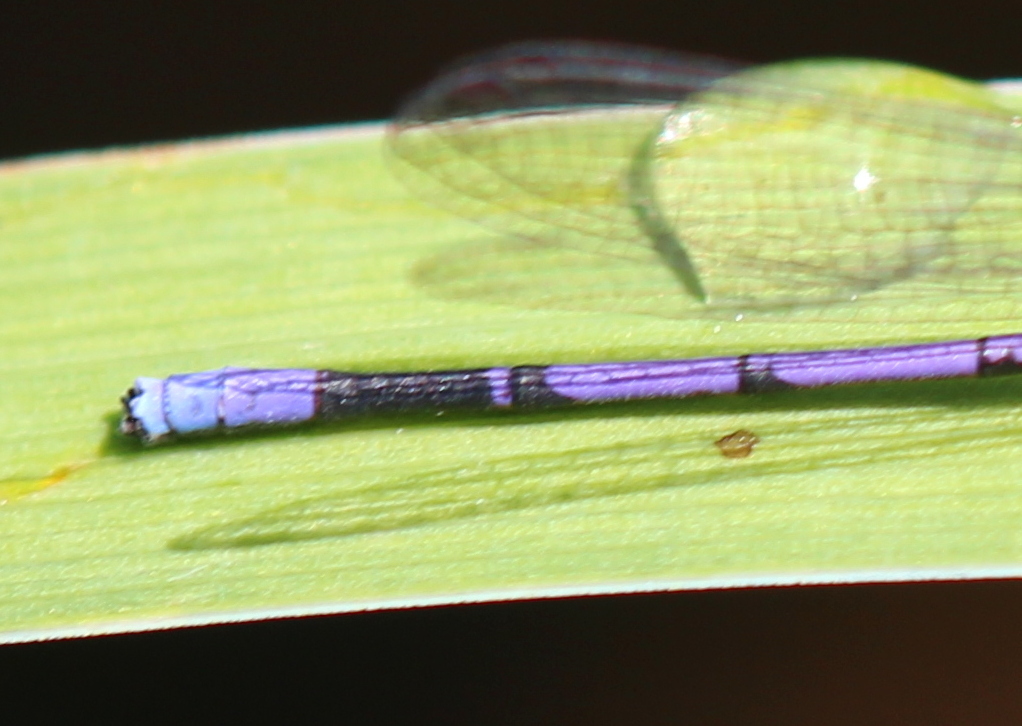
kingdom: Animalia
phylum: Arthropoda
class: Insecta
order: Odonata
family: Coenagrionidae
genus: Argia
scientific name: Argia fumipennis
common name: Variable dancer
